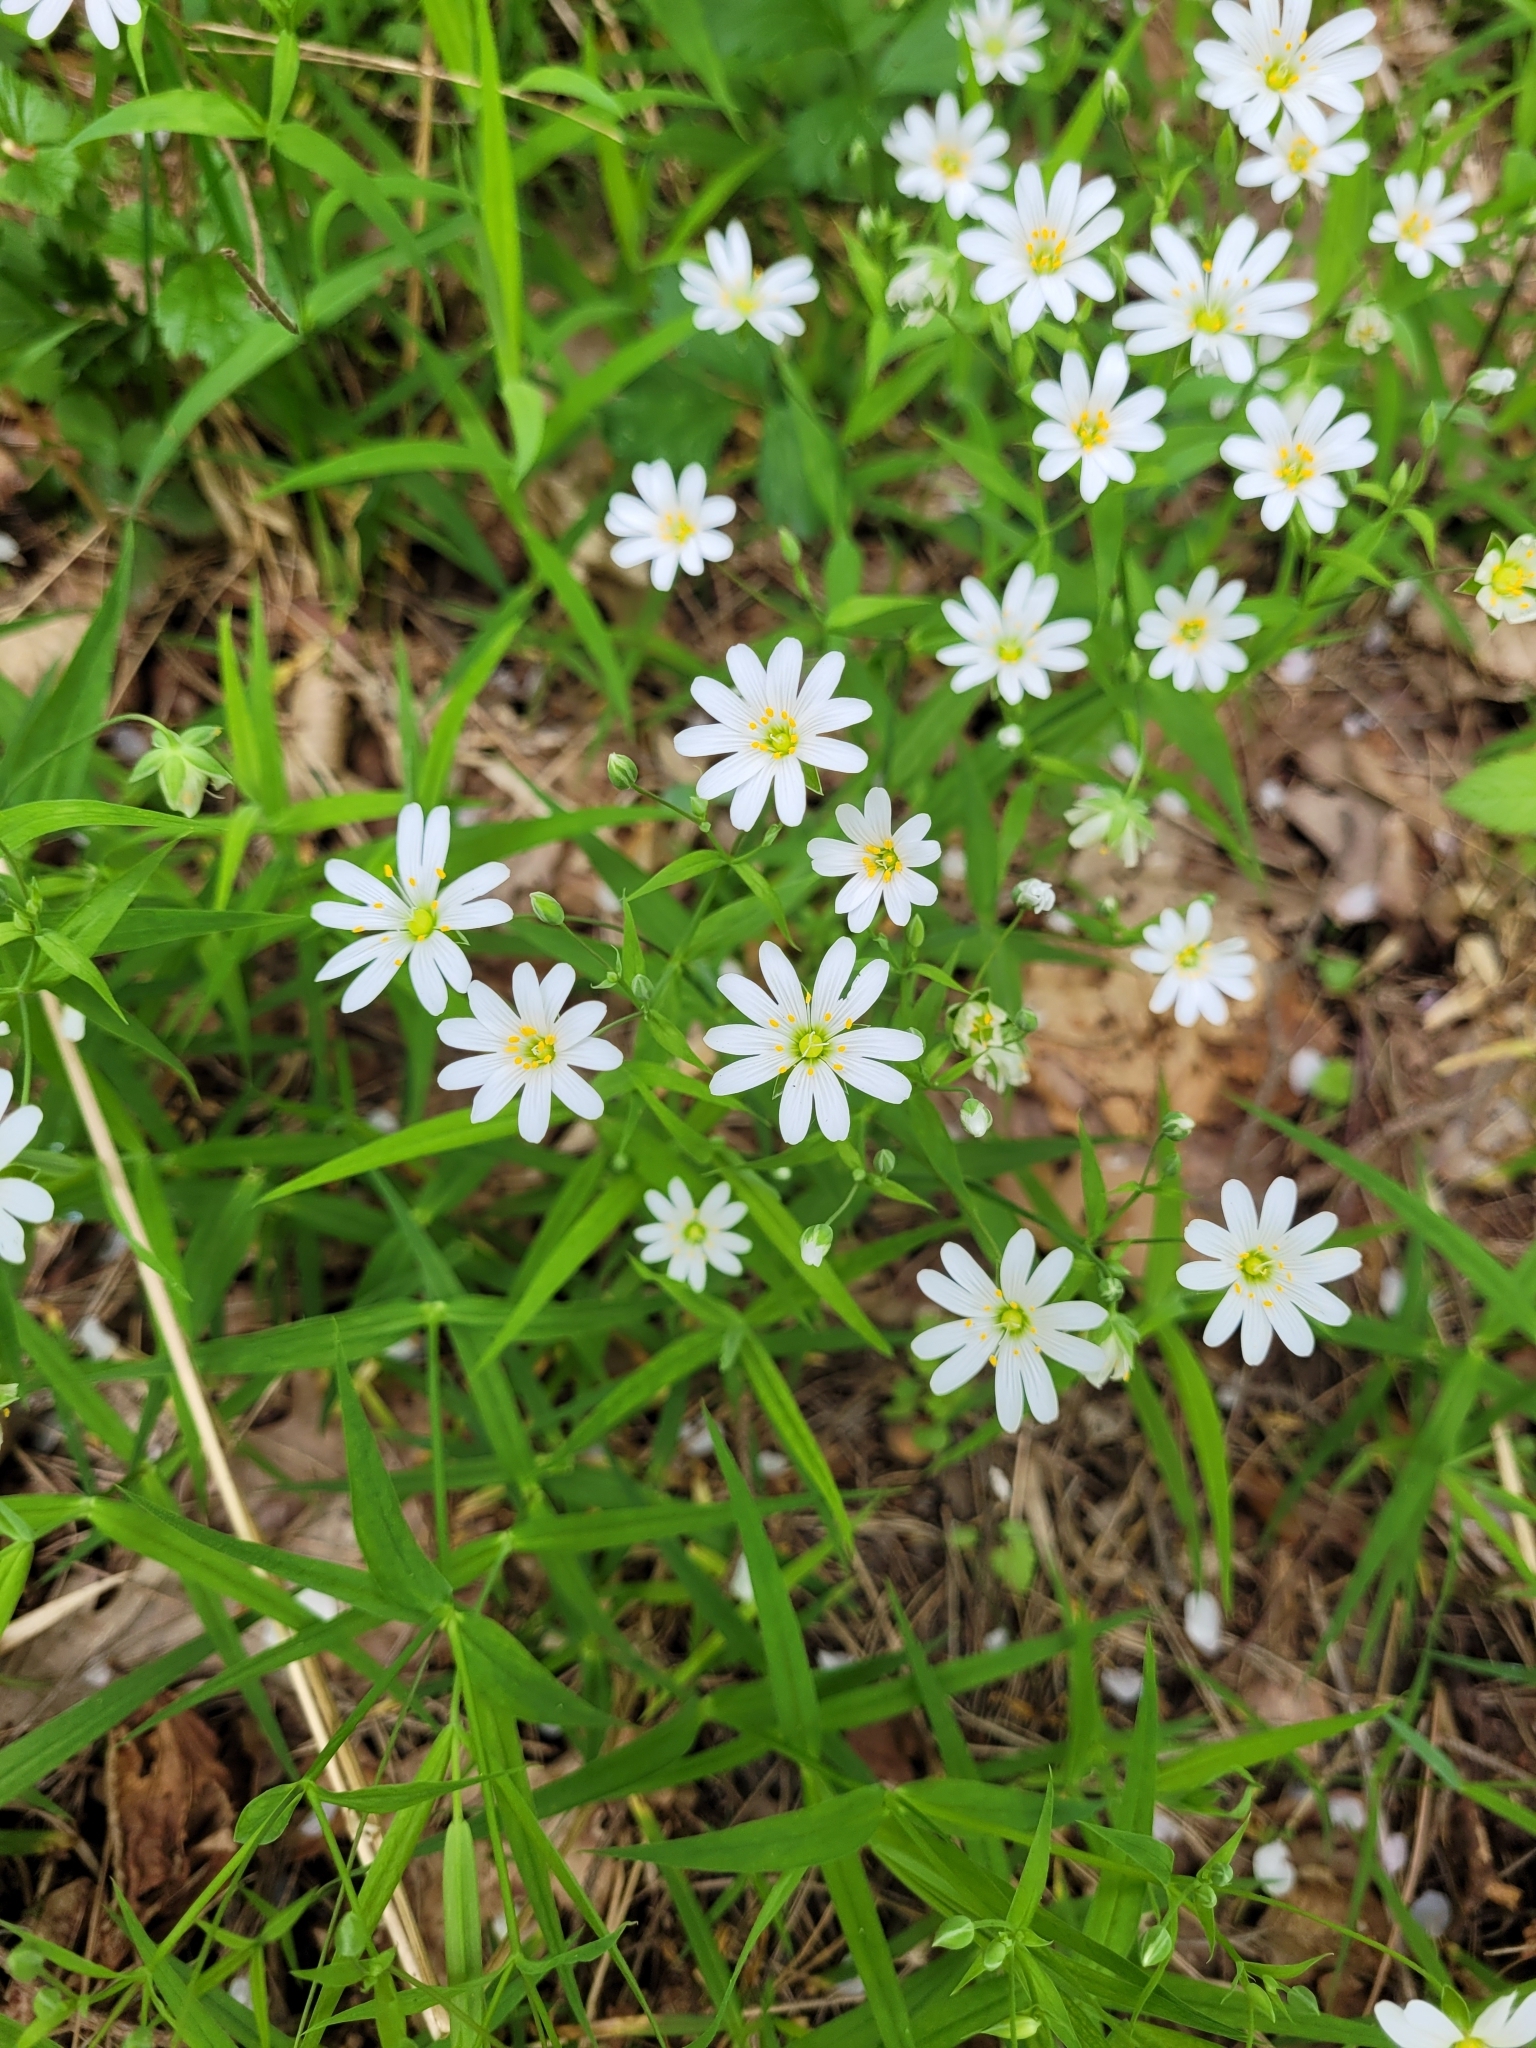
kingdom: Plantae
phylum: Tracheophyta
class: Magnoliopsida
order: Caryophyllales
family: Caryophyllaceae
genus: Rabelera
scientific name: Rabelera holostea
